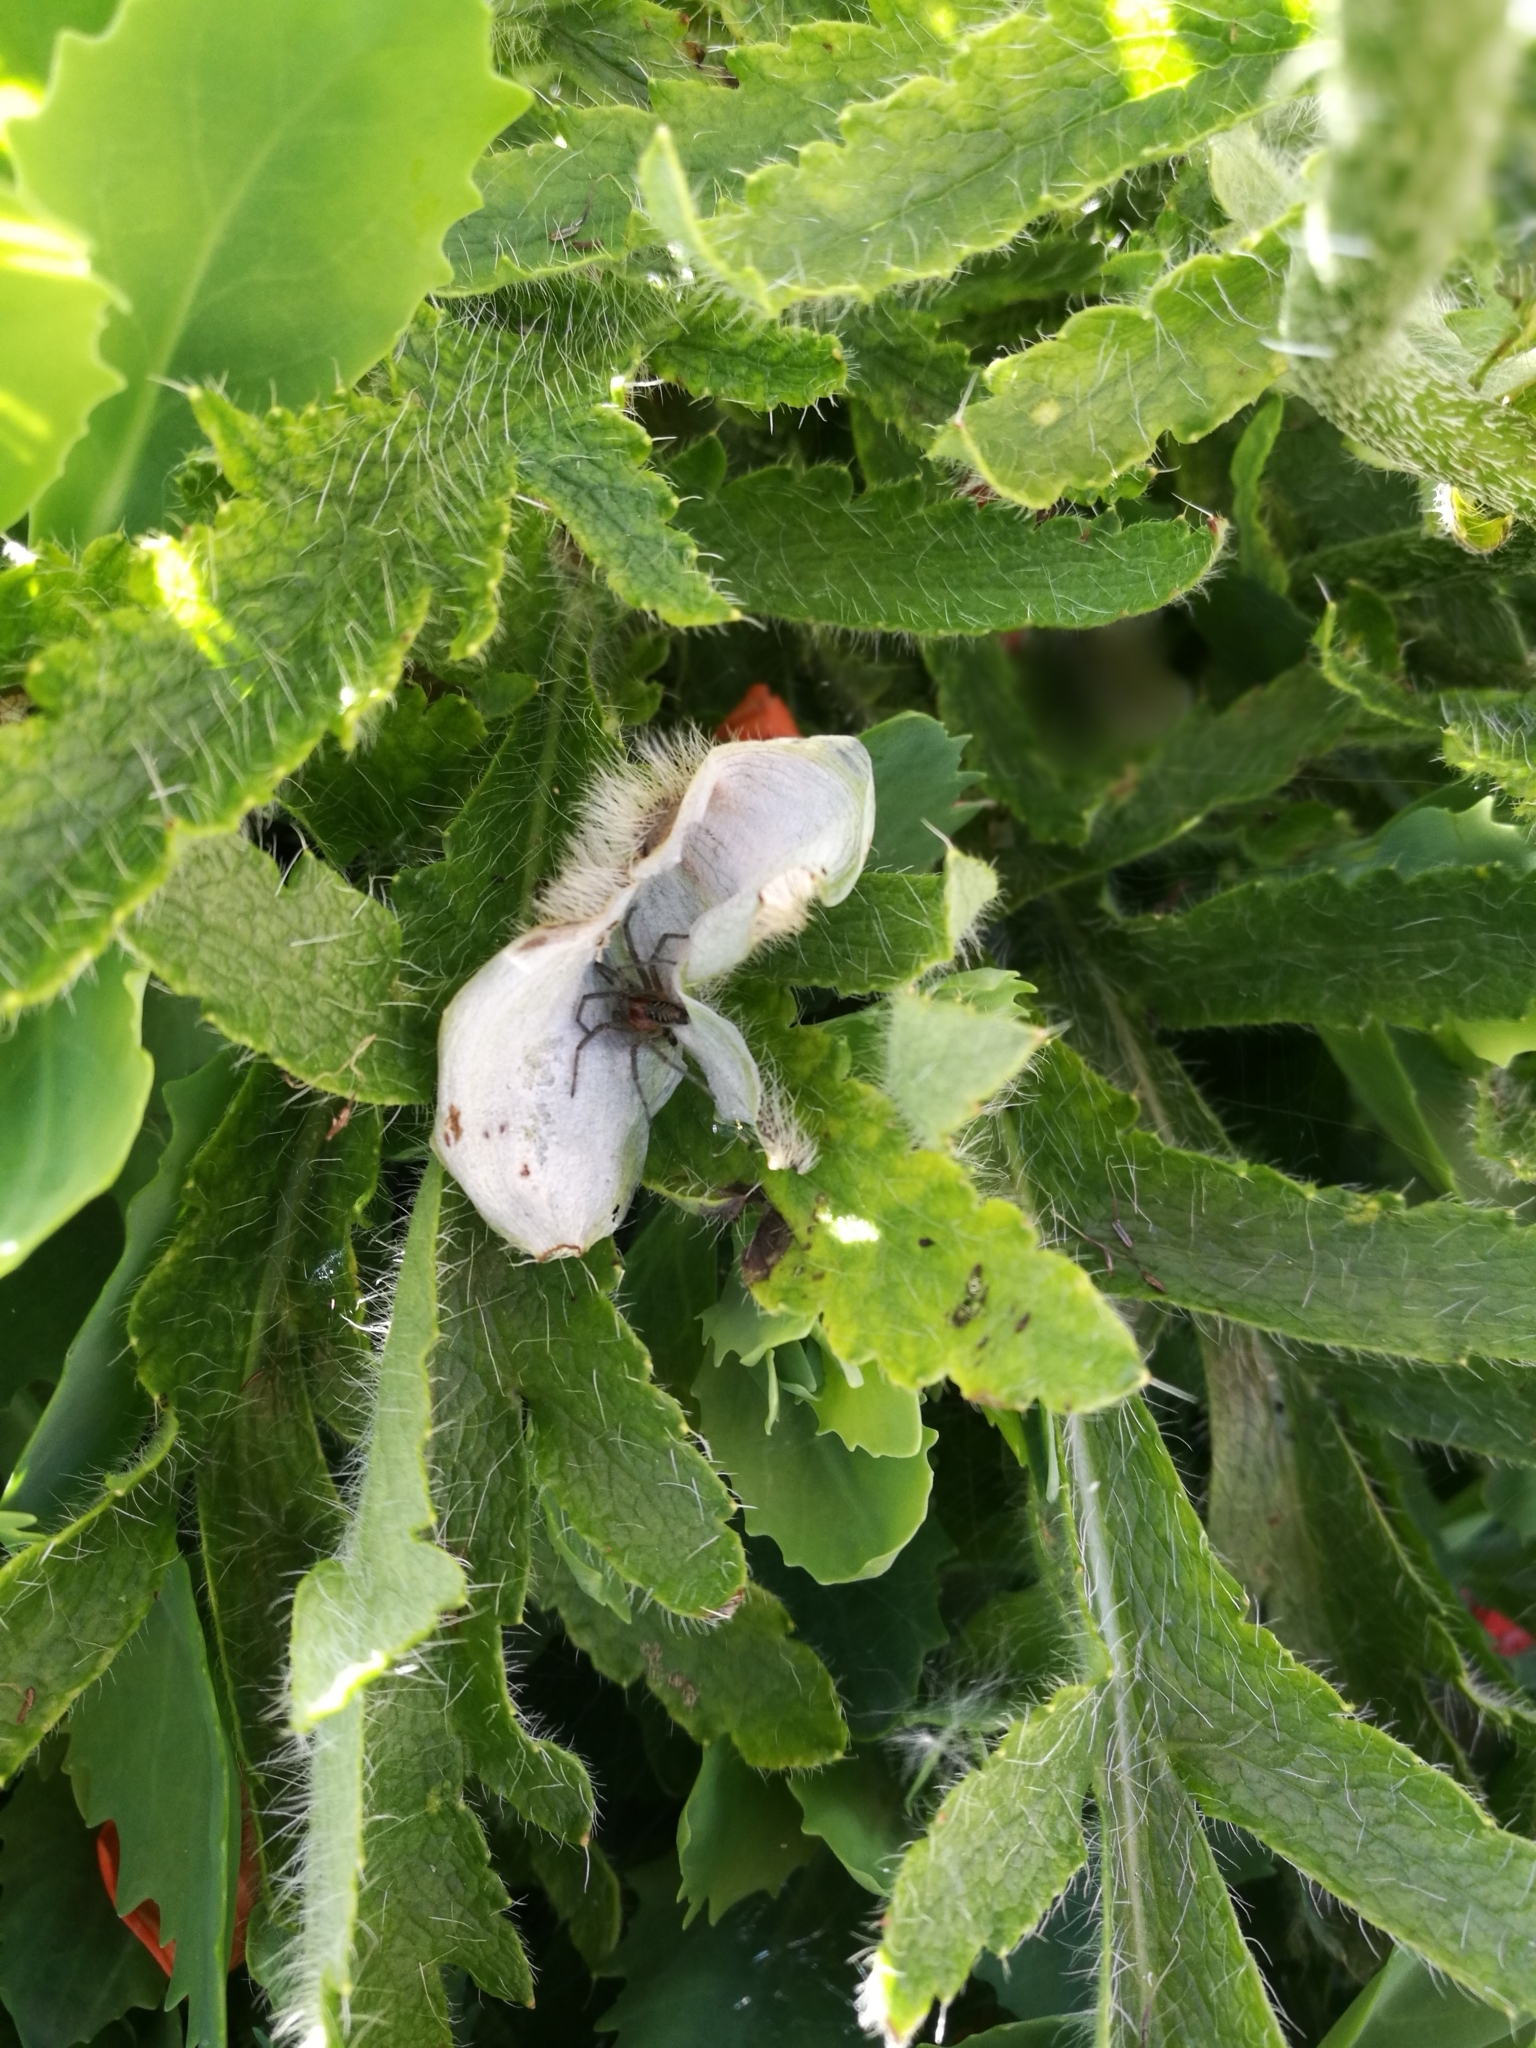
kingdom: Animalia
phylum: Arthropoda
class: Arachnida
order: Araneae
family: Agelenidae
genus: Agelena
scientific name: Agelena labyrinthica
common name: Labyrinth spider
